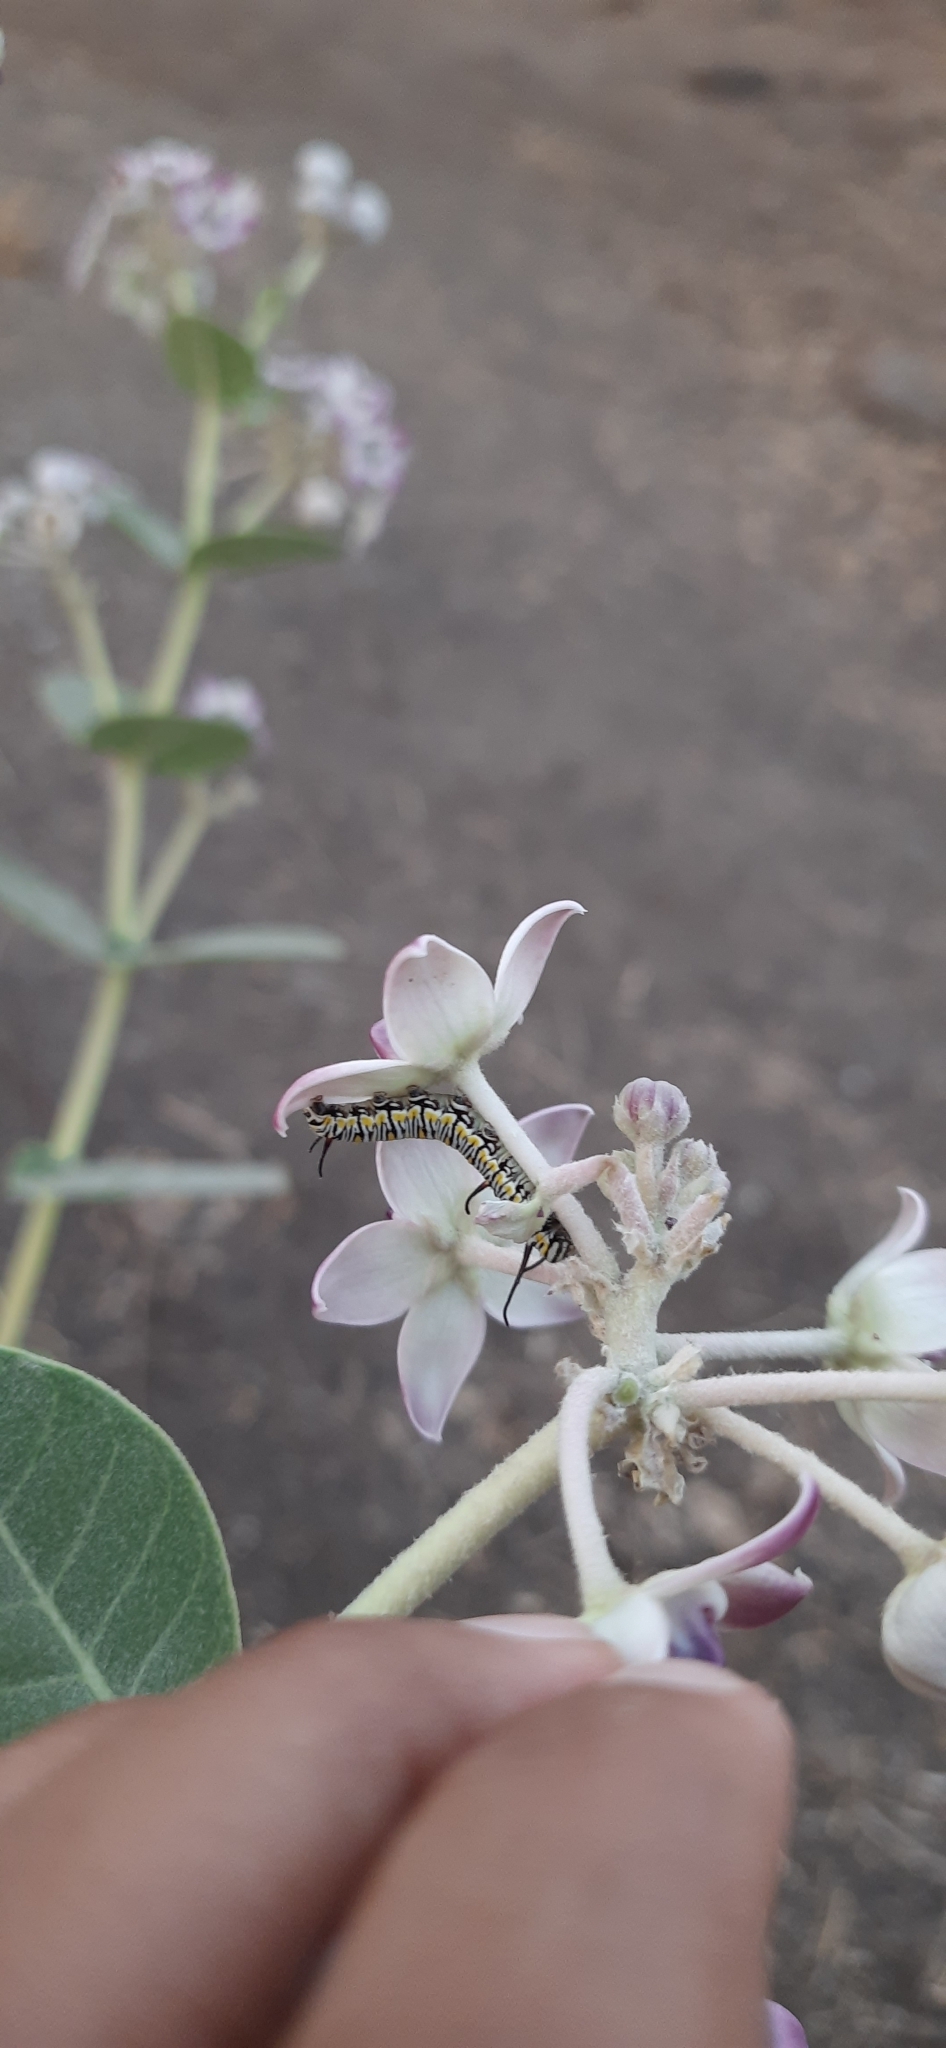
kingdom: Animalia
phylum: Arthropoda
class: Insecta
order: Lepidoptera
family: Nymphalidae
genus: Danaus
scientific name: Danaus chrysippus
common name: Plain tiger
